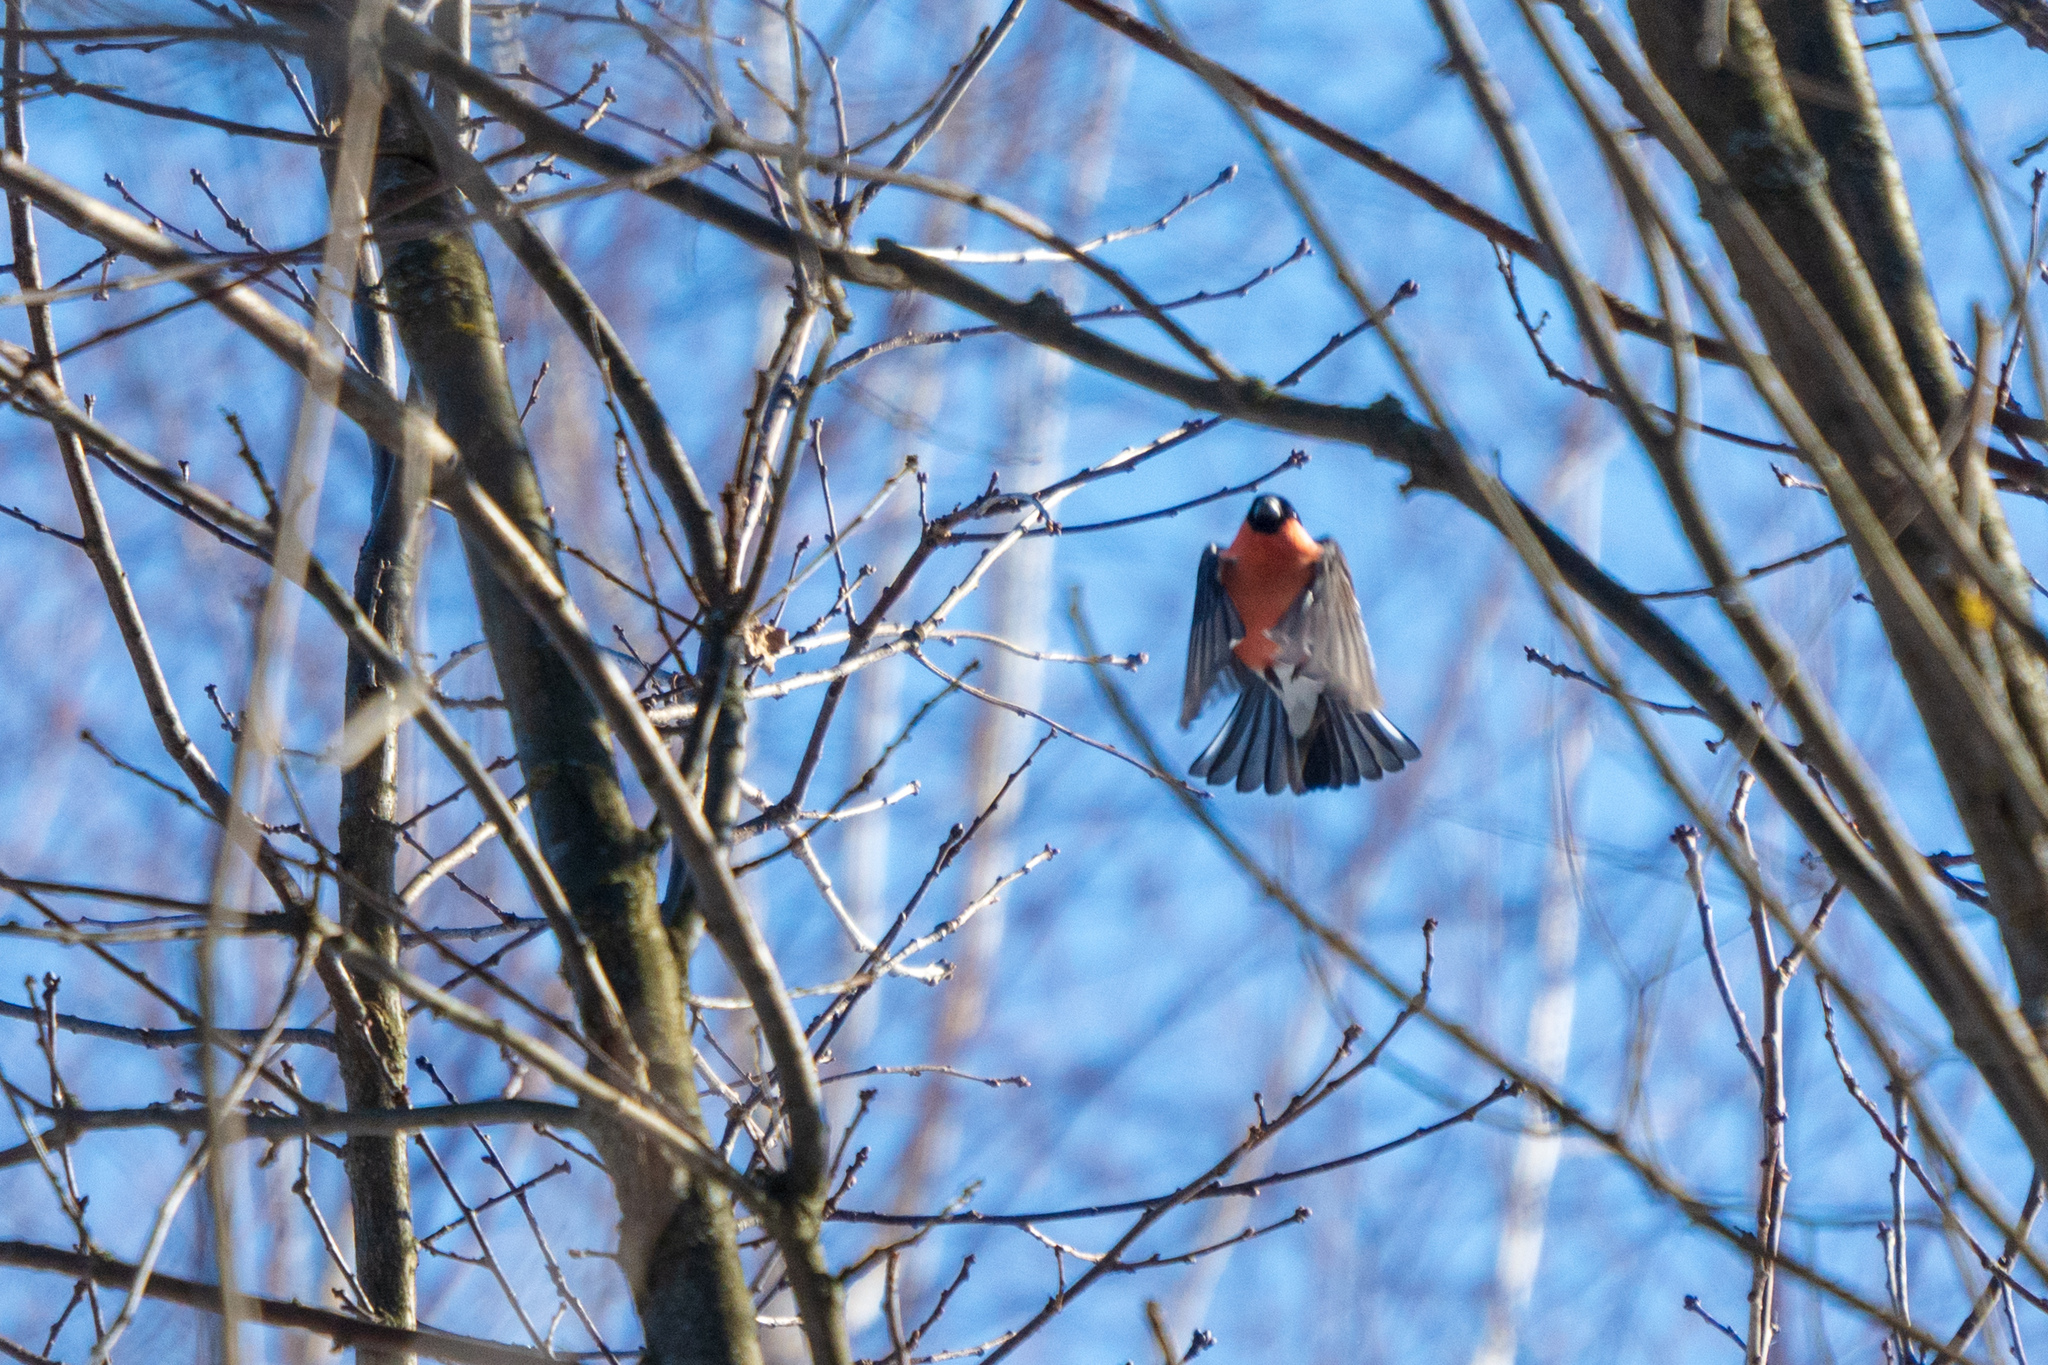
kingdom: Animalia
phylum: Chordata
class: Aves
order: Passeriformes
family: Fringillidae
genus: Pyrrhula
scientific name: Pyrrhula pyrrhula
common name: Eurasian bullfinch
